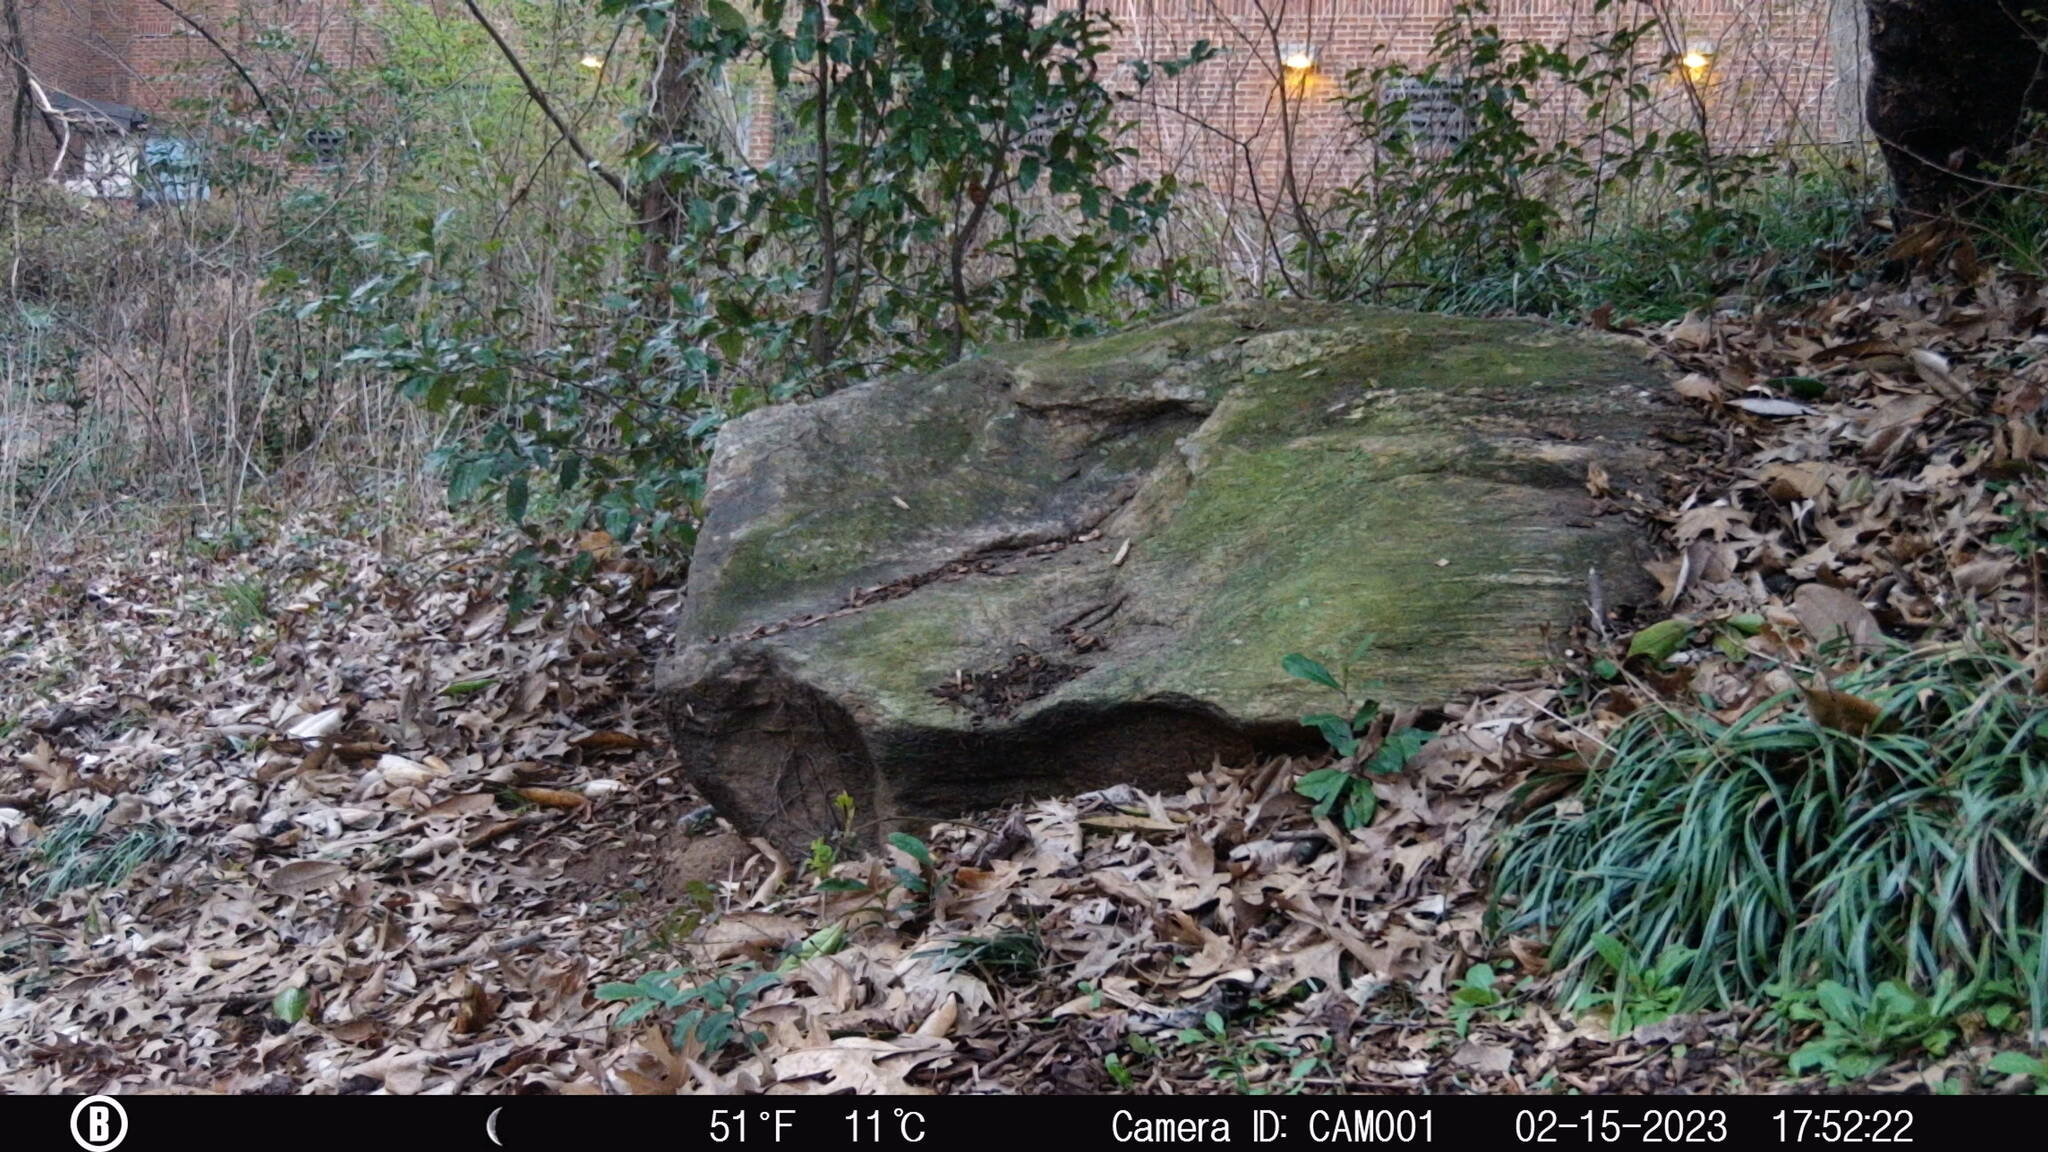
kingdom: Animalia
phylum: Chordata
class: Mammalia
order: Rodentia
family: Sciuridae
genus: Sciurus
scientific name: Sciurus carolinensis
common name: Eastern gray squirrel
